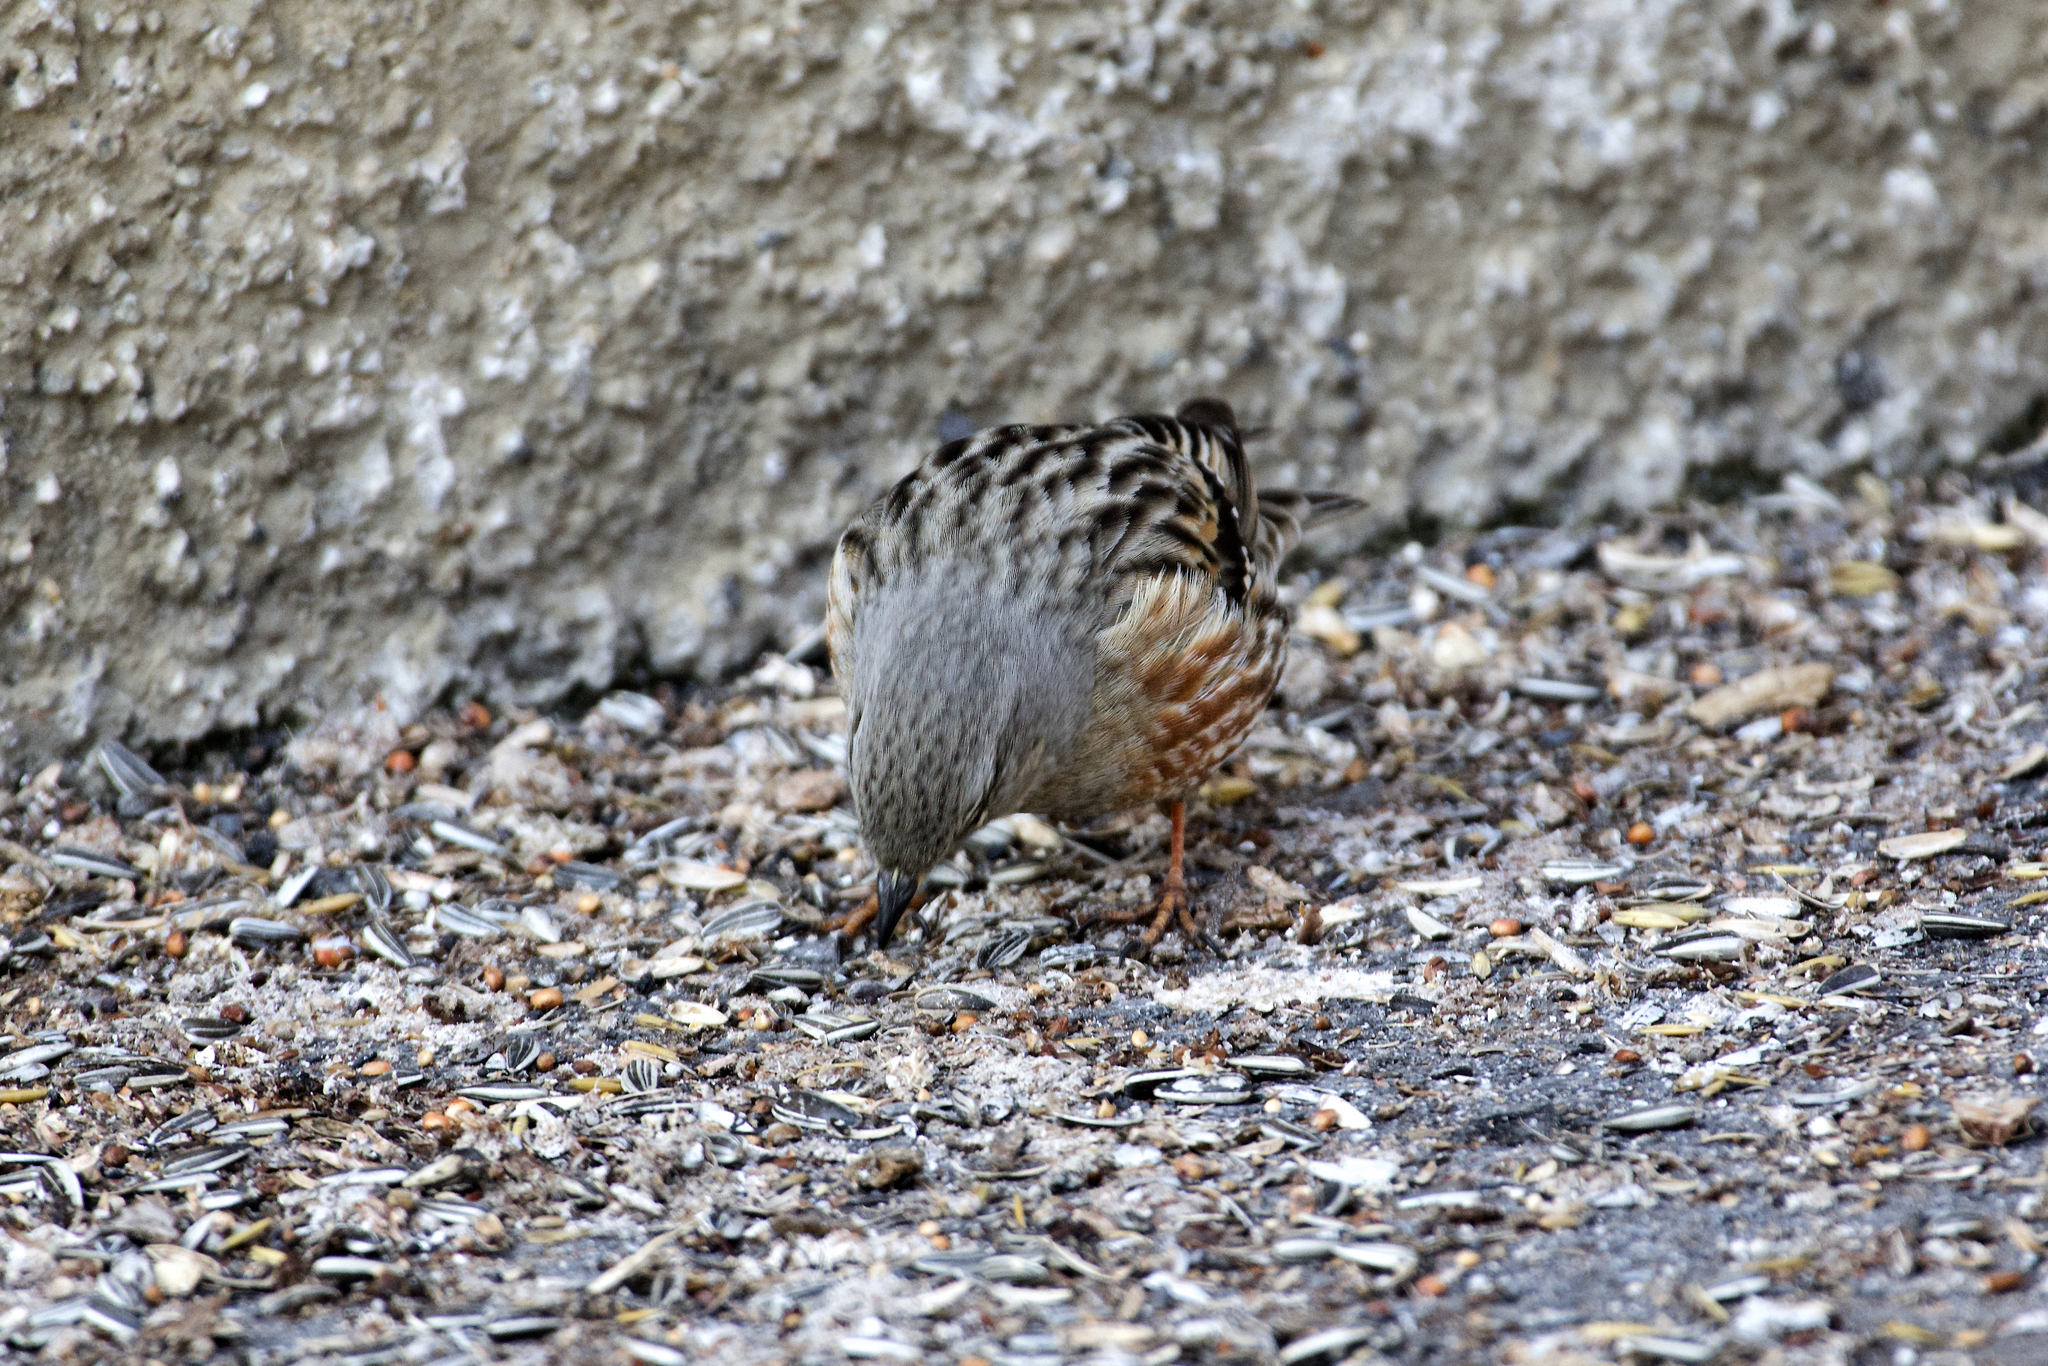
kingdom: Animalia
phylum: Chordata
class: Aves
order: Passeriformes
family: Prunellidae
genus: Prunella
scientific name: Prunella collaris
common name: Alpine accentor
